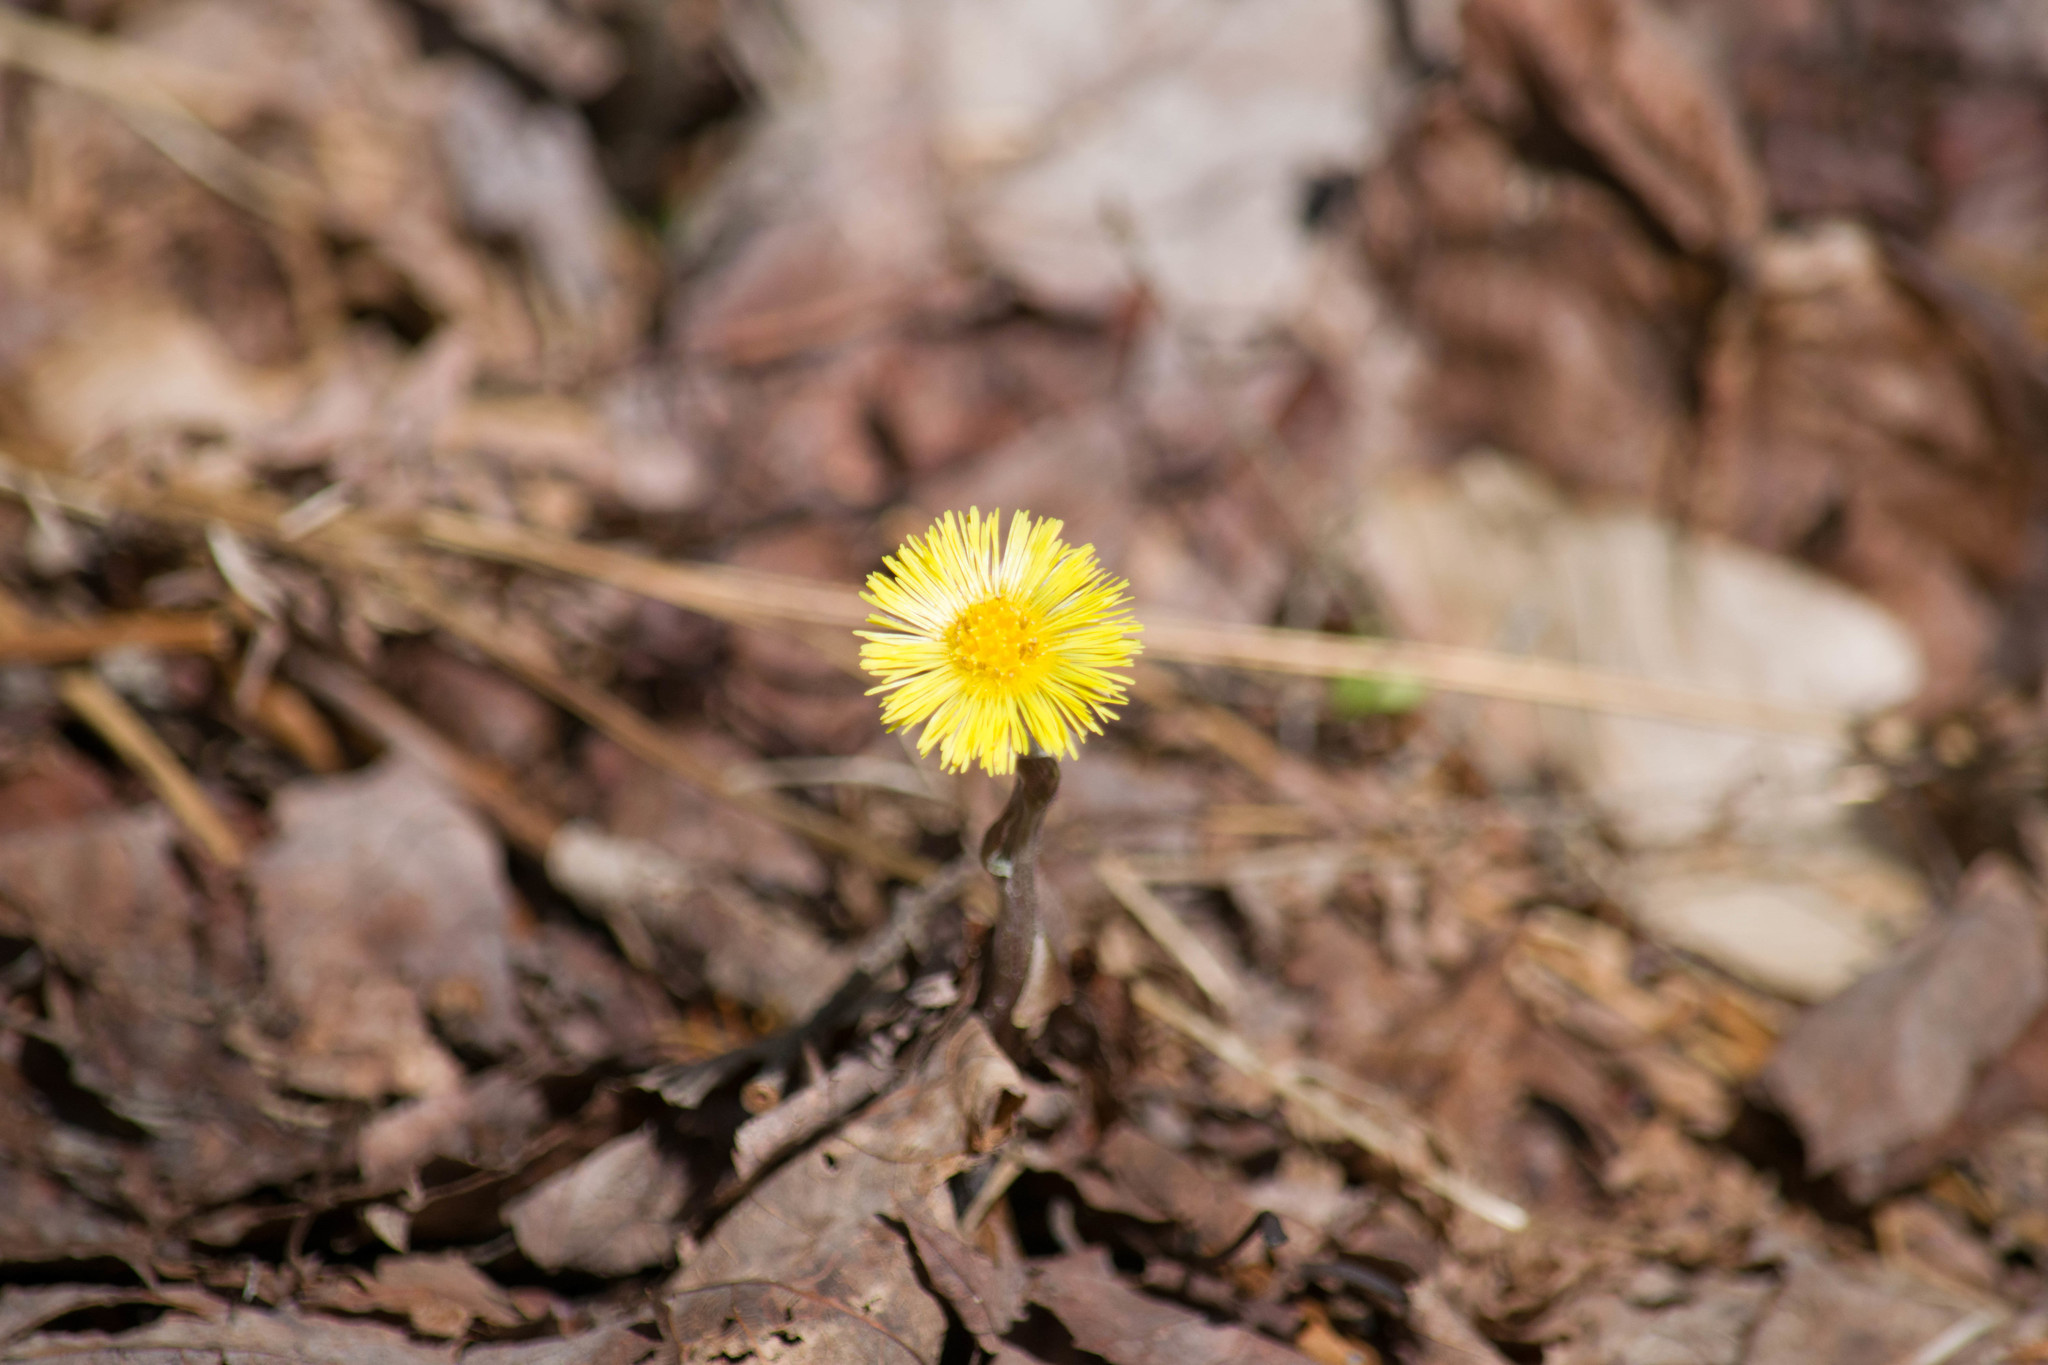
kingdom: Plantae
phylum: Tracheophyta
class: Magnoliopsida
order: Asterales
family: Asteraceae
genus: Tussilago
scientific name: Tussilago farfara
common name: Coltsfoot
